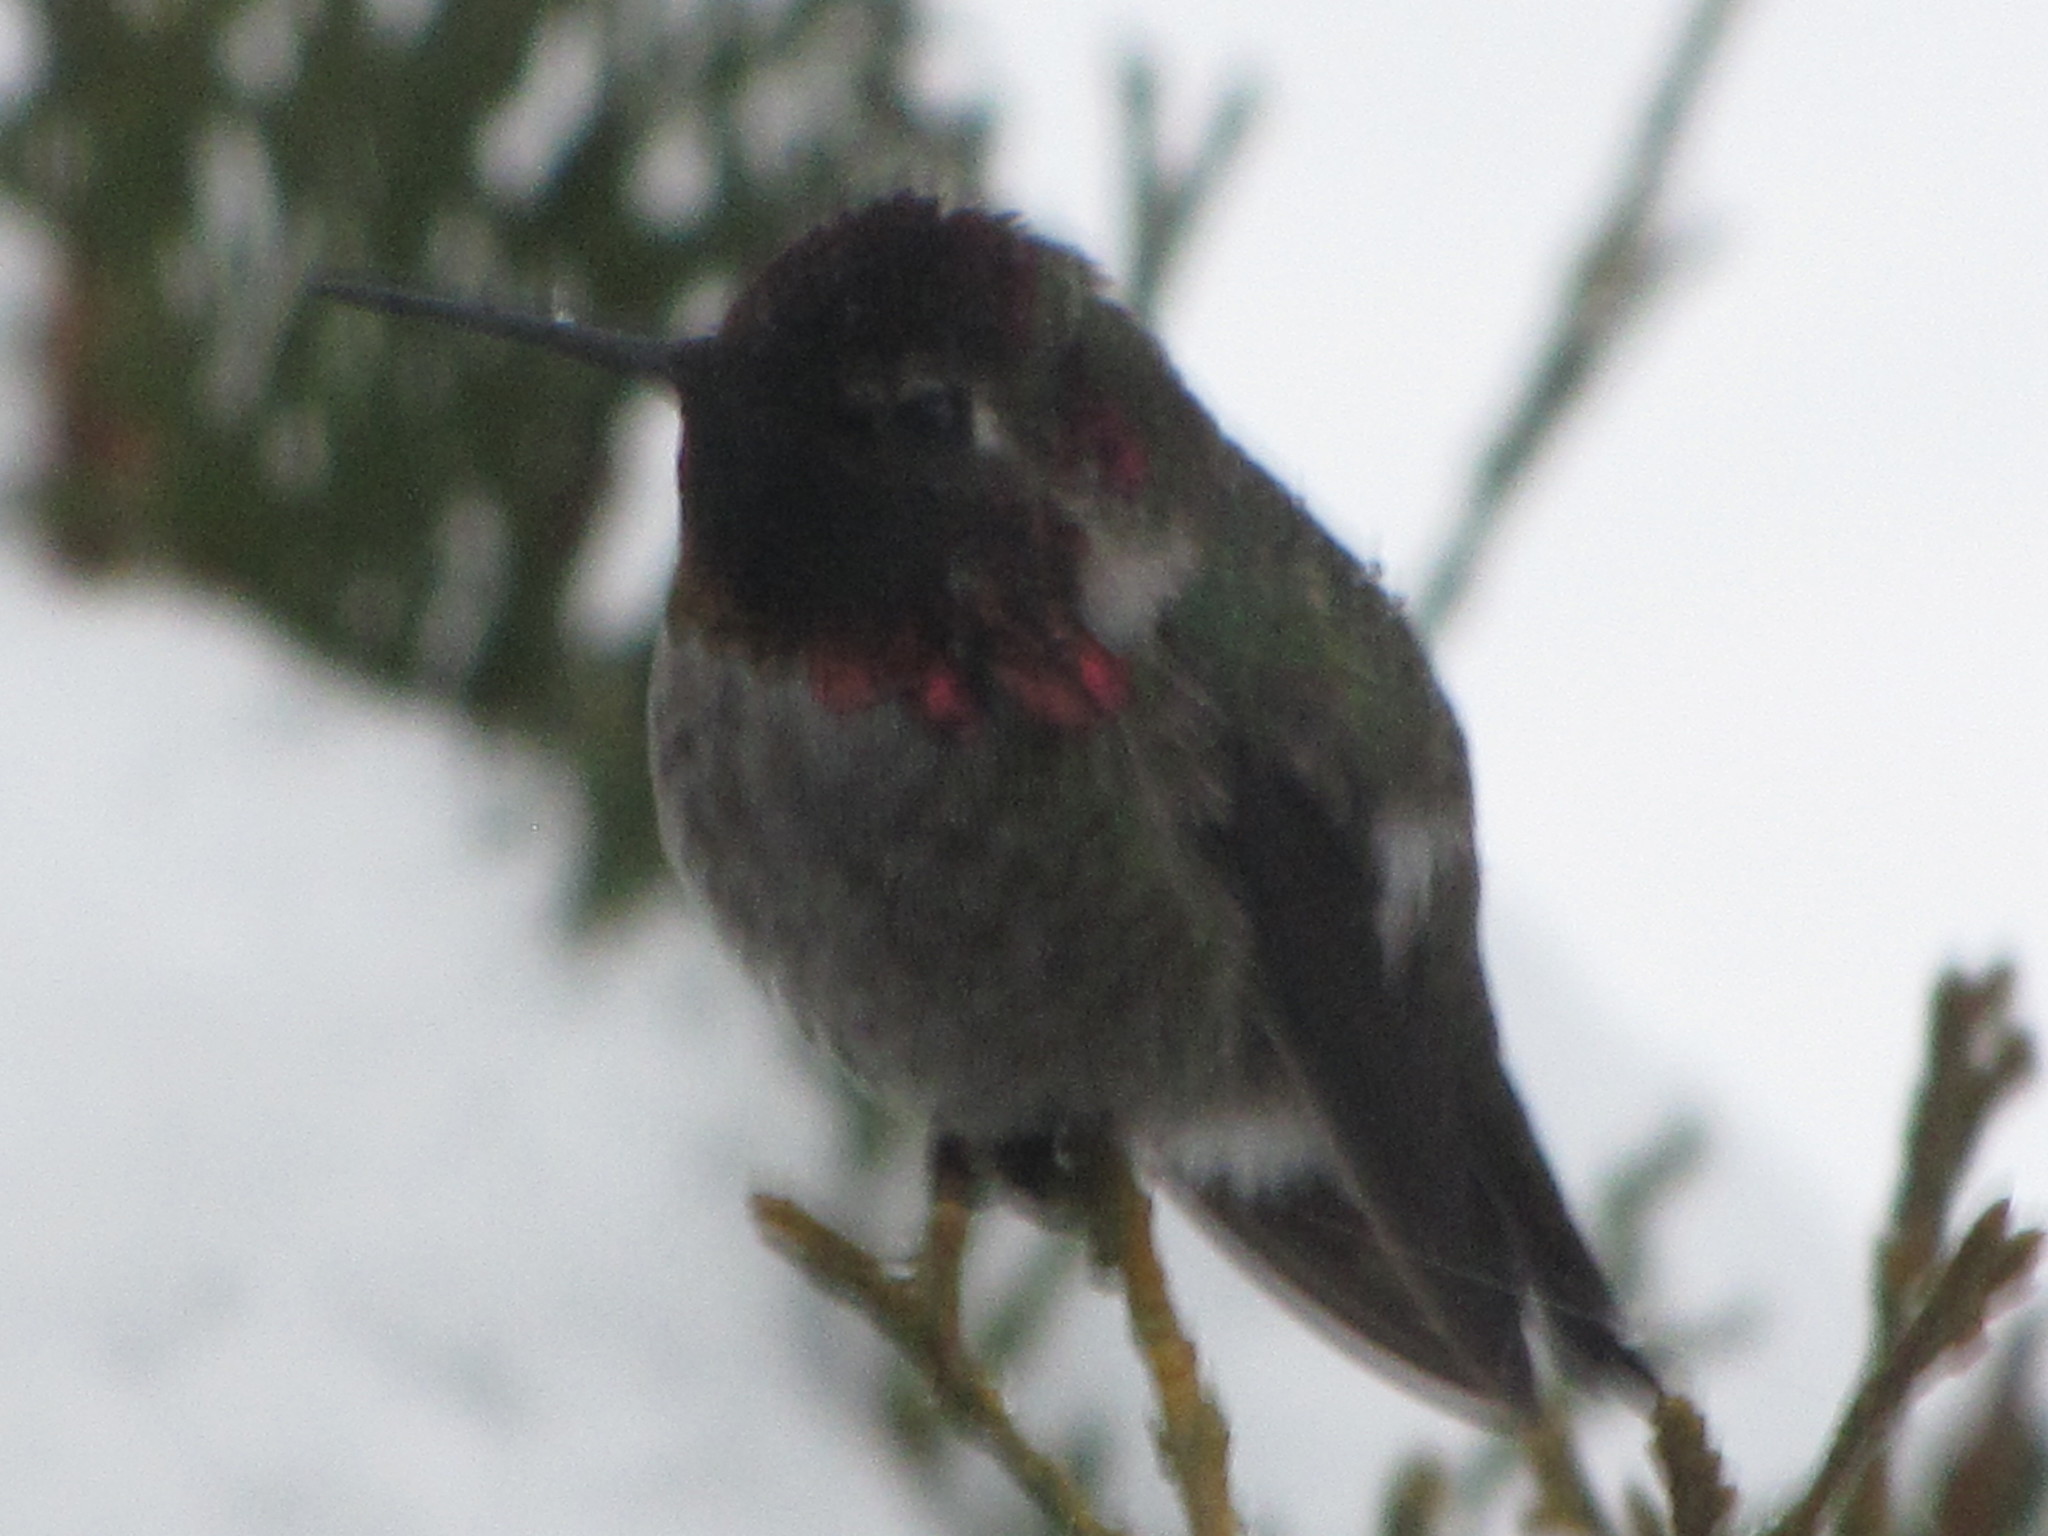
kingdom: Animalia
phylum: Chordata
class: Aves
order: Apodiformes
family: Trochilidae
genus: Calypte
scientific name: Calypte anna
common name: Anna's hummingbird
